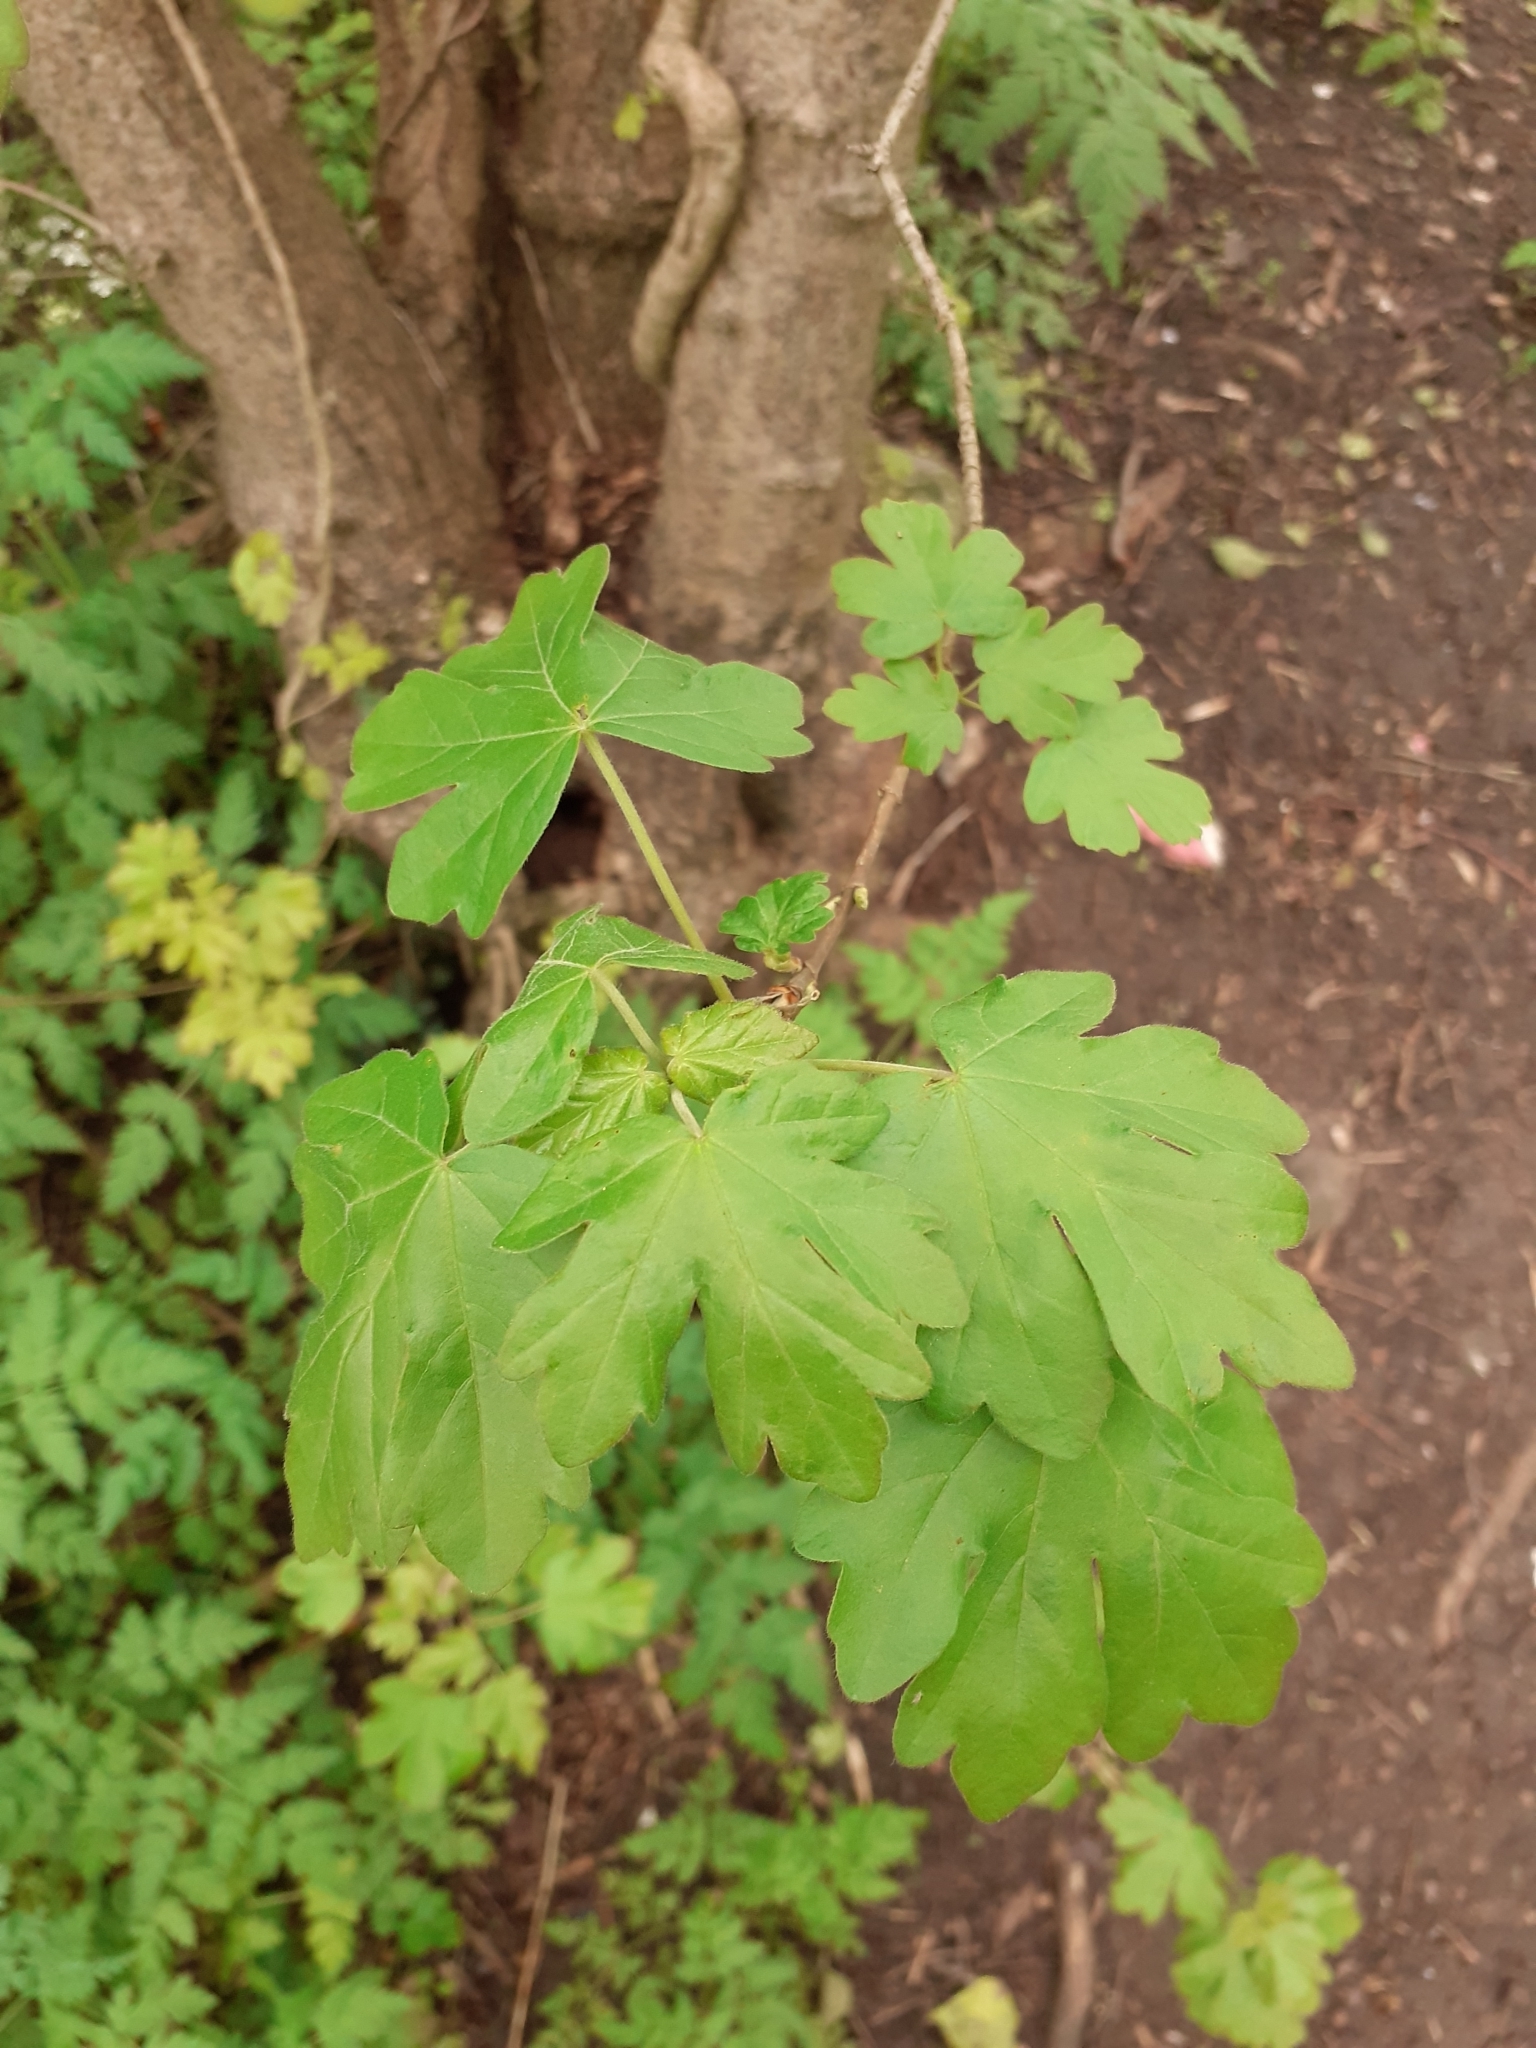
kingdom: Plantae
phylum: Tracheophyta
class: Magnoliopsida
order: Sapindales
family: Sapindaceae
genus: Acer
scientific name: Acer campestre
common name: Field maple
